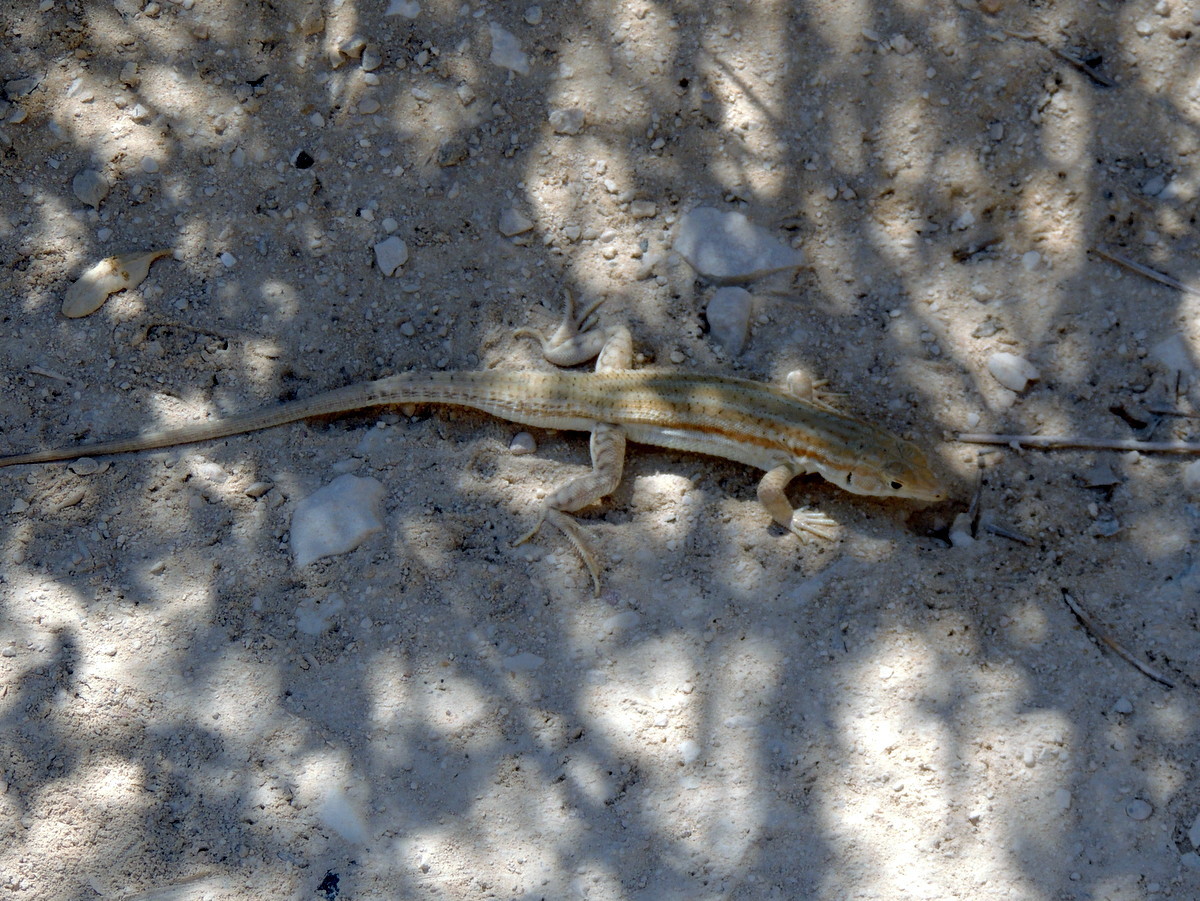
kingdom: Animalia
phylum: Chordata
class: Squamata
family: Lacertidae
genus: Acanthodactylus
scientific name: Acanthodactylus boskianus
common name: Bosc’s fringe-toed lizard
